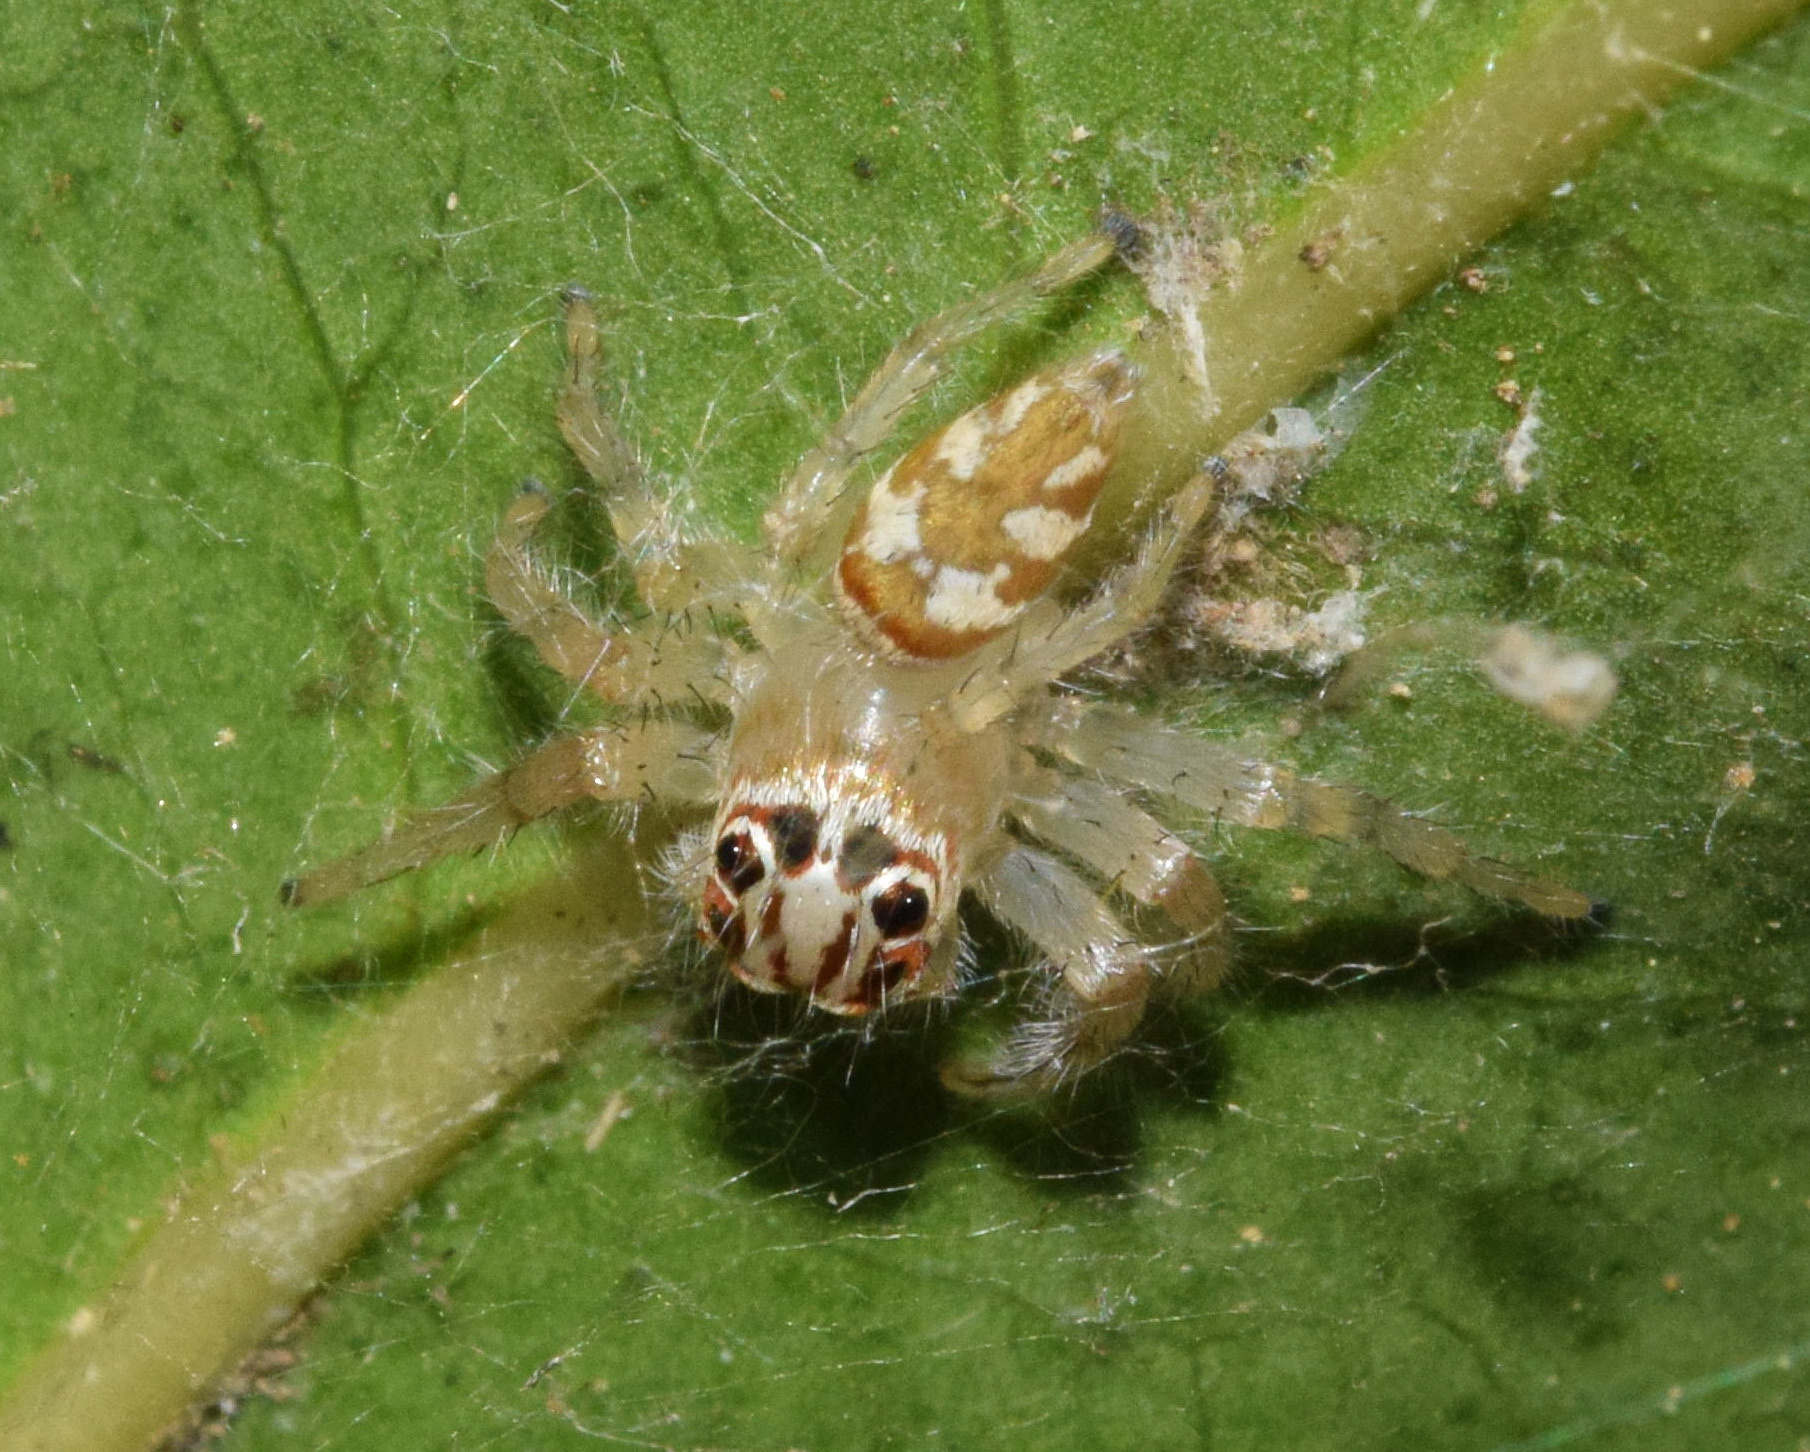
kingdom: Animalia
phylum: Arthropoda
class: Arachnida
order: Araneae
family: Salticidae
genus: Brancus
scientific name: Brancus mustelus
